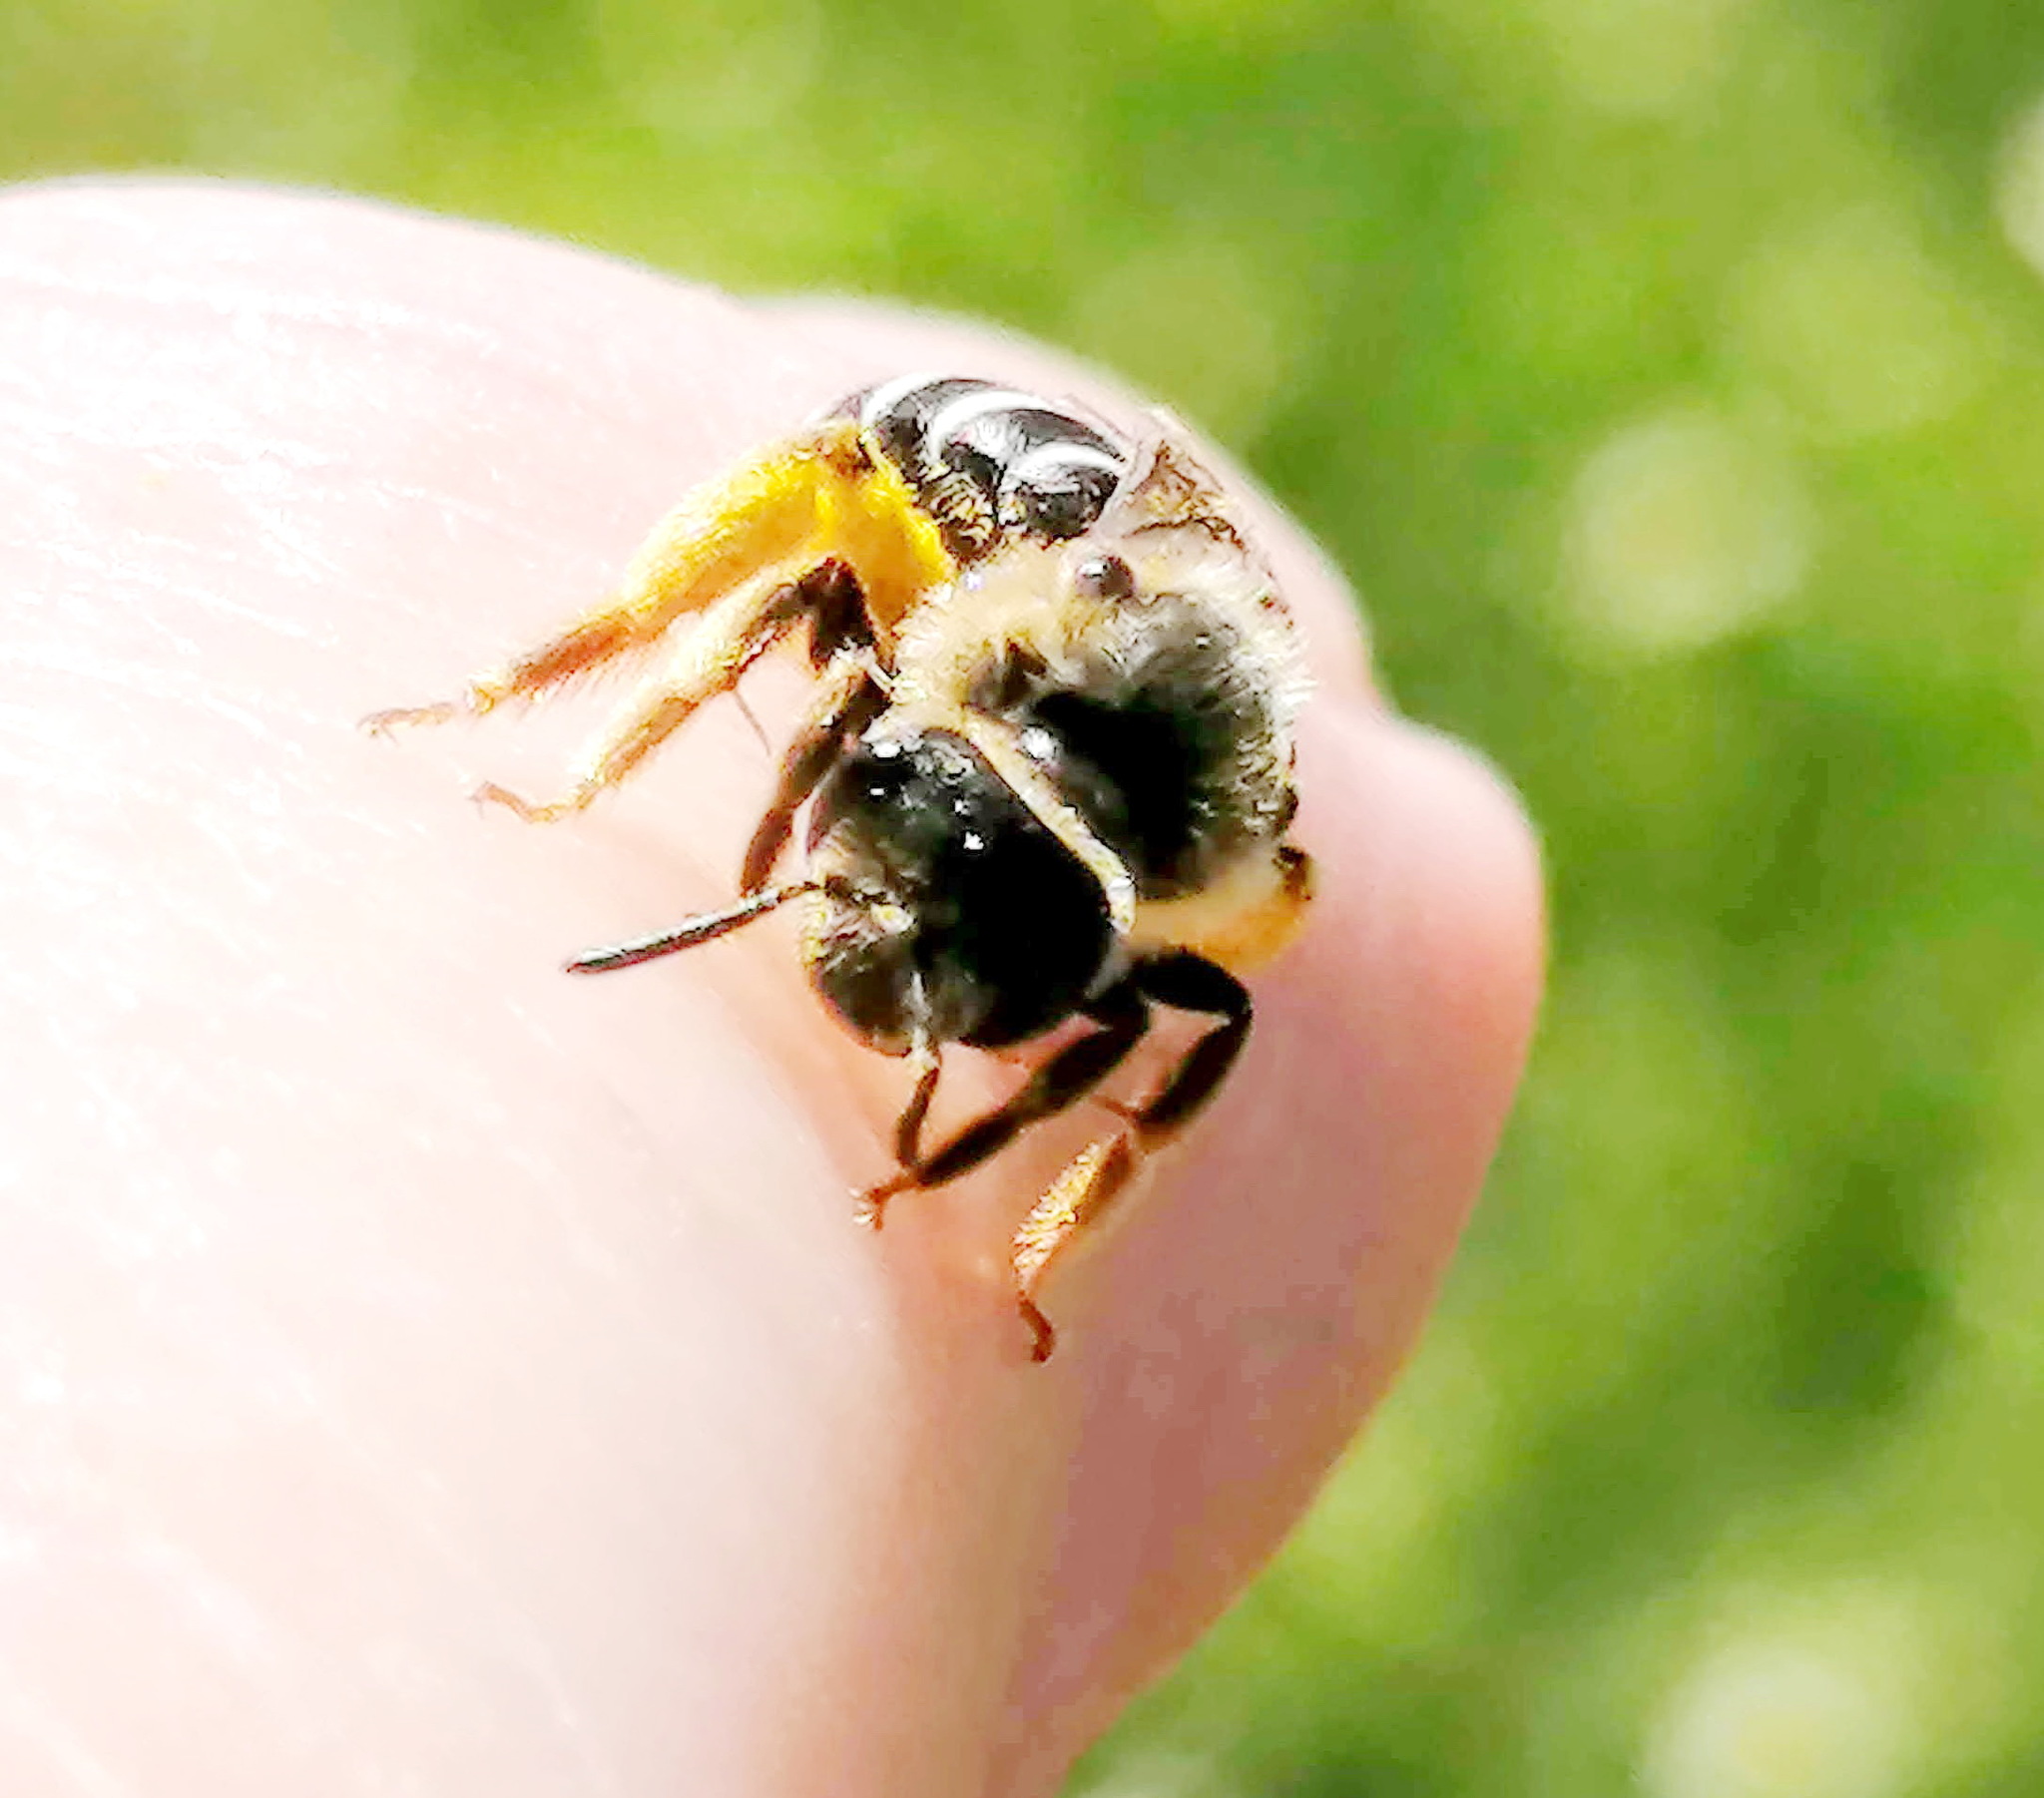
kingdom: Animalia
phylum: Arthropoda
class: Insecta
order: Hymenoptera
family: Halictidae
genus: Halictus
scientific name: Halictus rubicundus
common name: Orange-legged furrow bee
